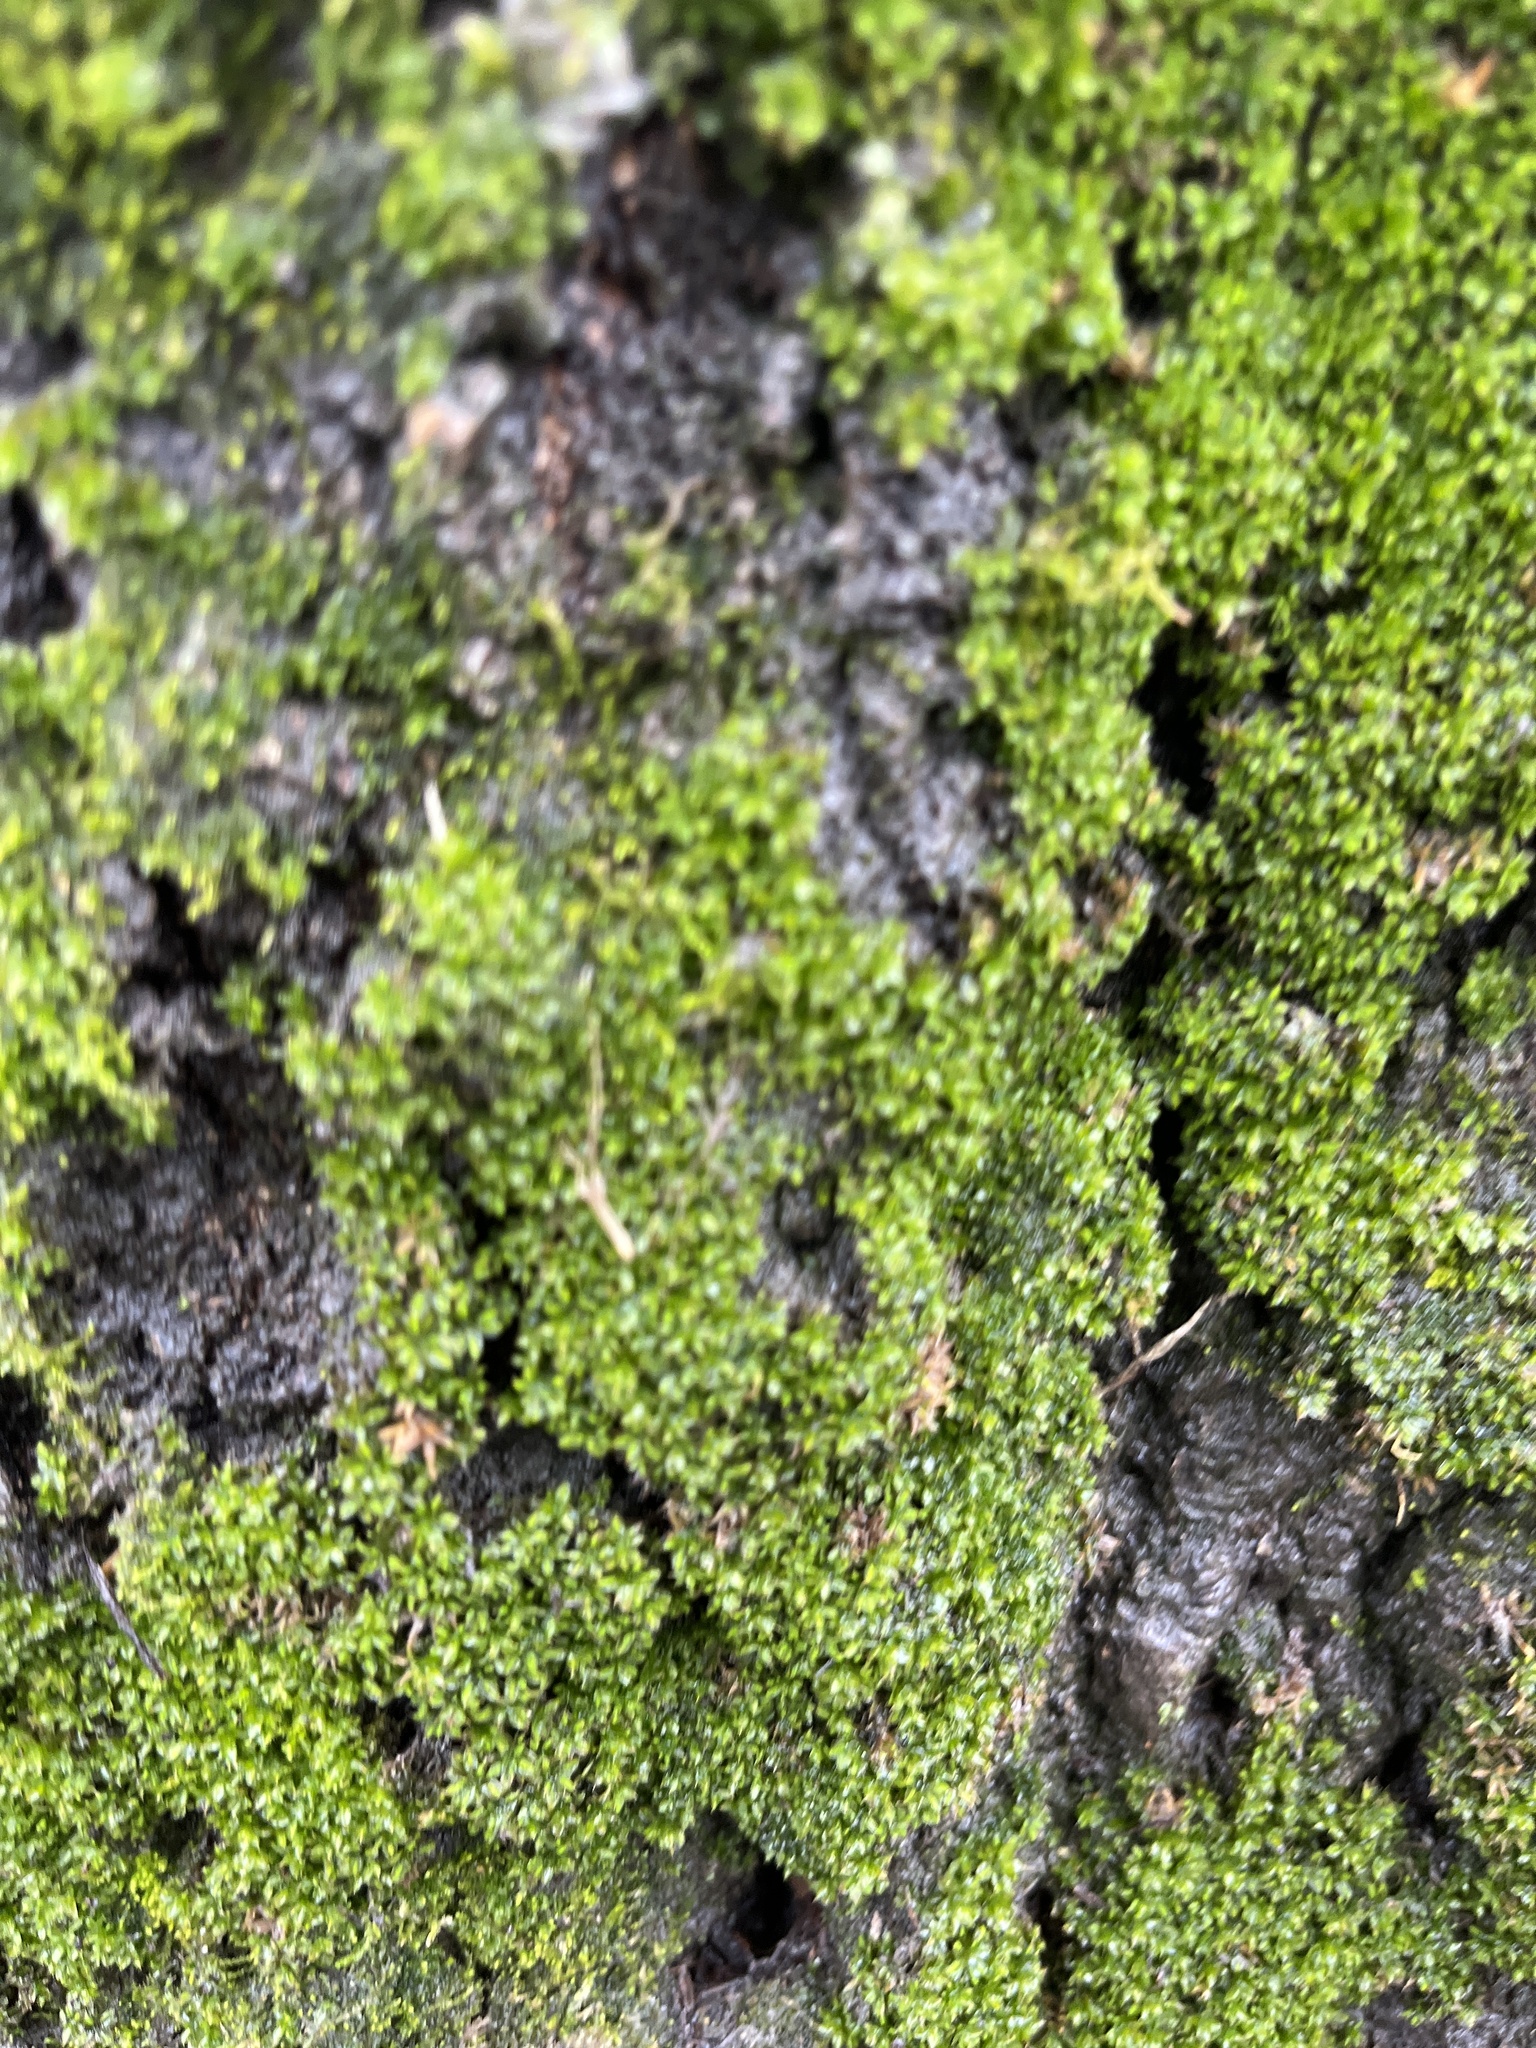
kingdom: Plantae
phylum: Bryophyta
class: Bryopsida
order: Pottiales
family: Pottiaceae
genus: Syntrichia
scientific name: Syntrichia papillosa
